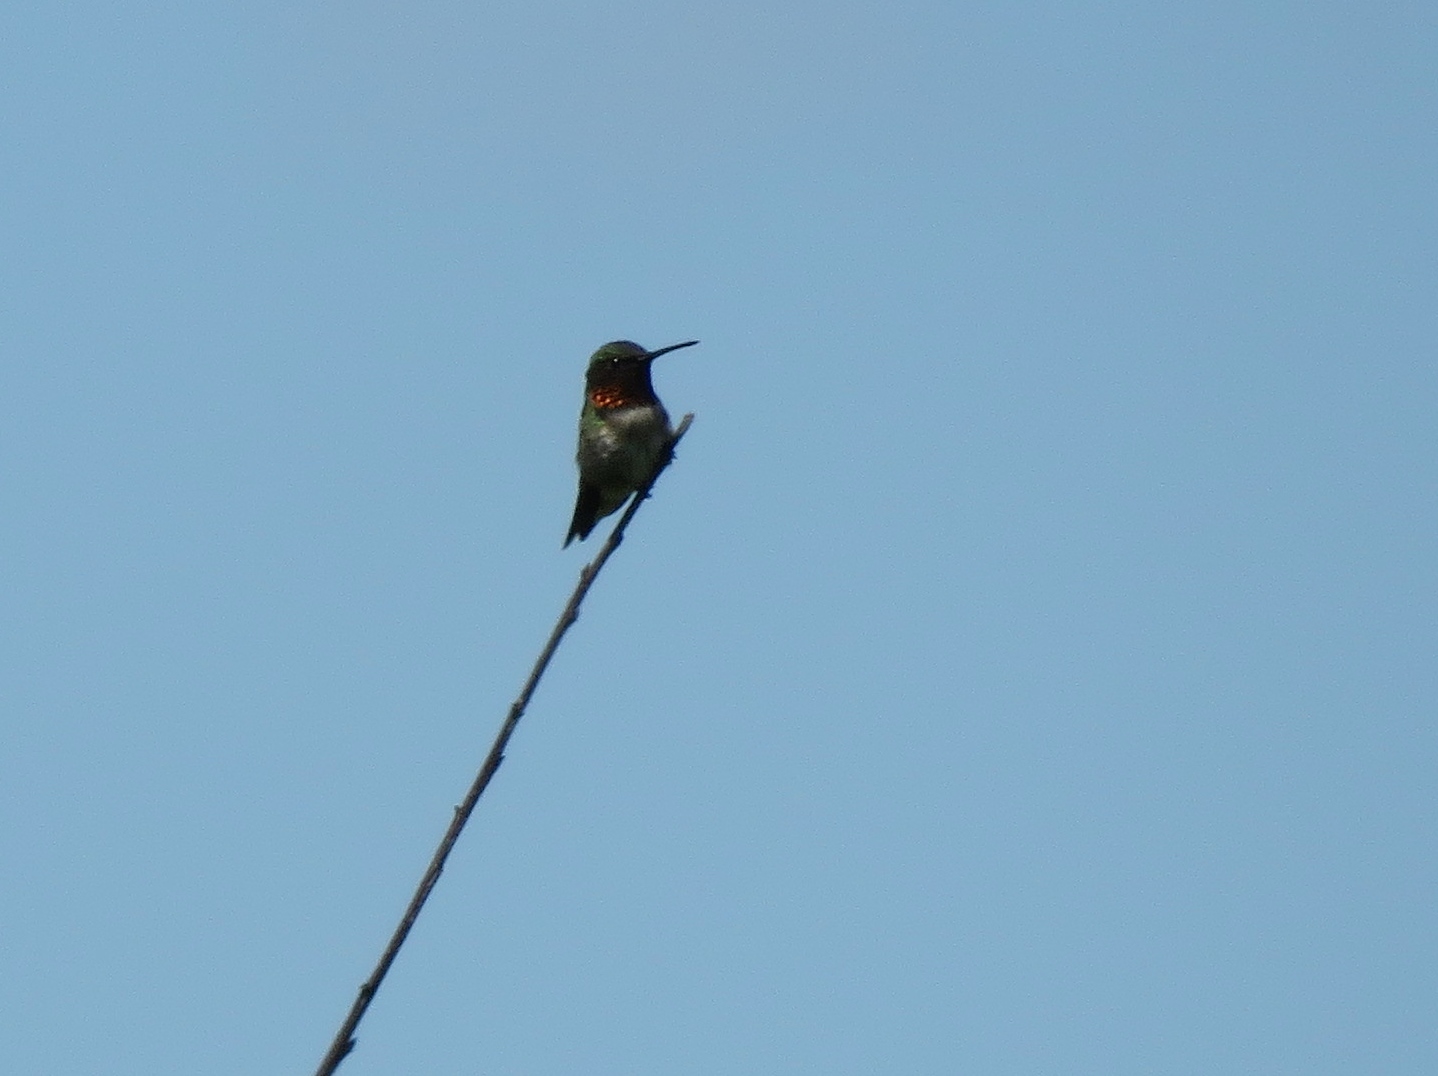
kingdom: Animalia
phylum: Chordata
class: Aves
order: Apodiformes
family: Trochilidae
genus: Archilochus
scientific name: Archilochus colubris
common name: Ruby-throated hummingbird
